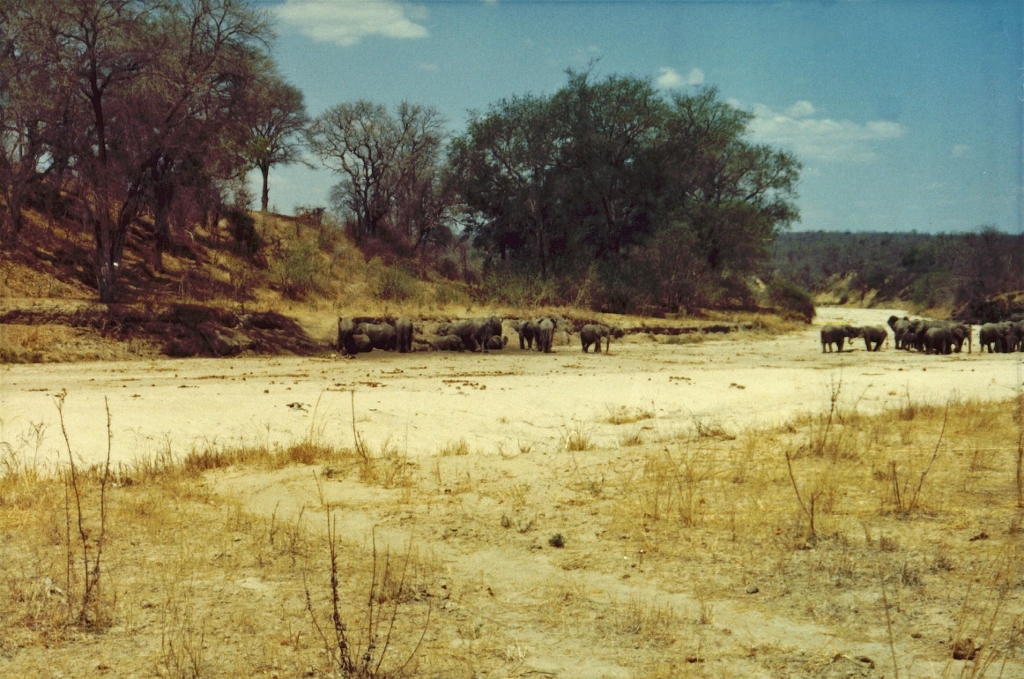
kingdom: Animalia
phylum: Chordata
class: Mammalia
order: Proboscidea
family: Elephantidae
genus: Loxodonta
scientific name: Loxodonta africana
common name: African elephant
